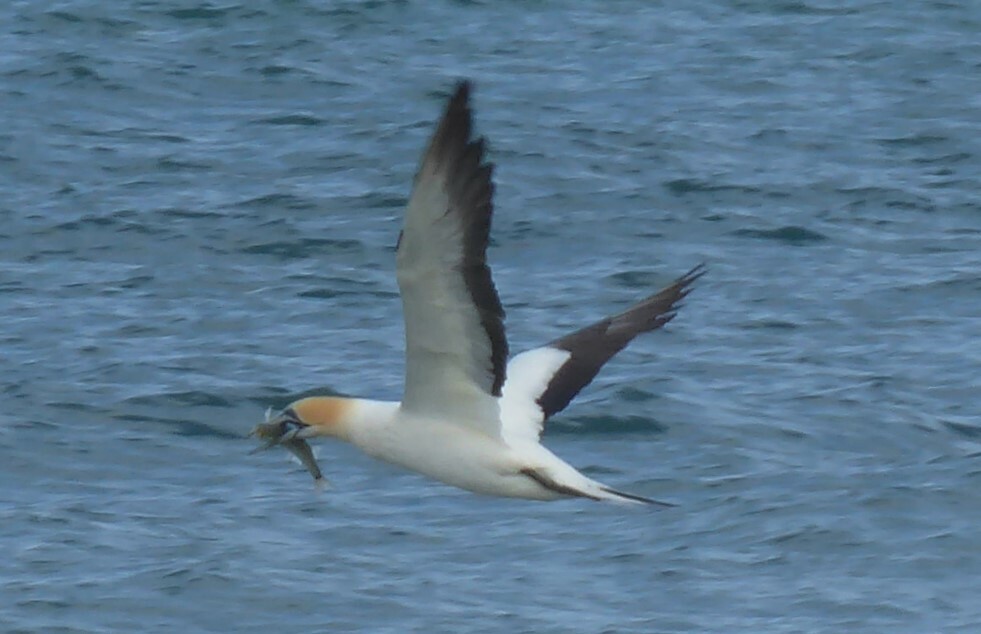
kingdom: Animalia
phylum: Chordata
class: Aves
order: Suliformes
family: Sulidae
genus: Morus
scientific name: Morus serrator
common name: Australasian gannet
